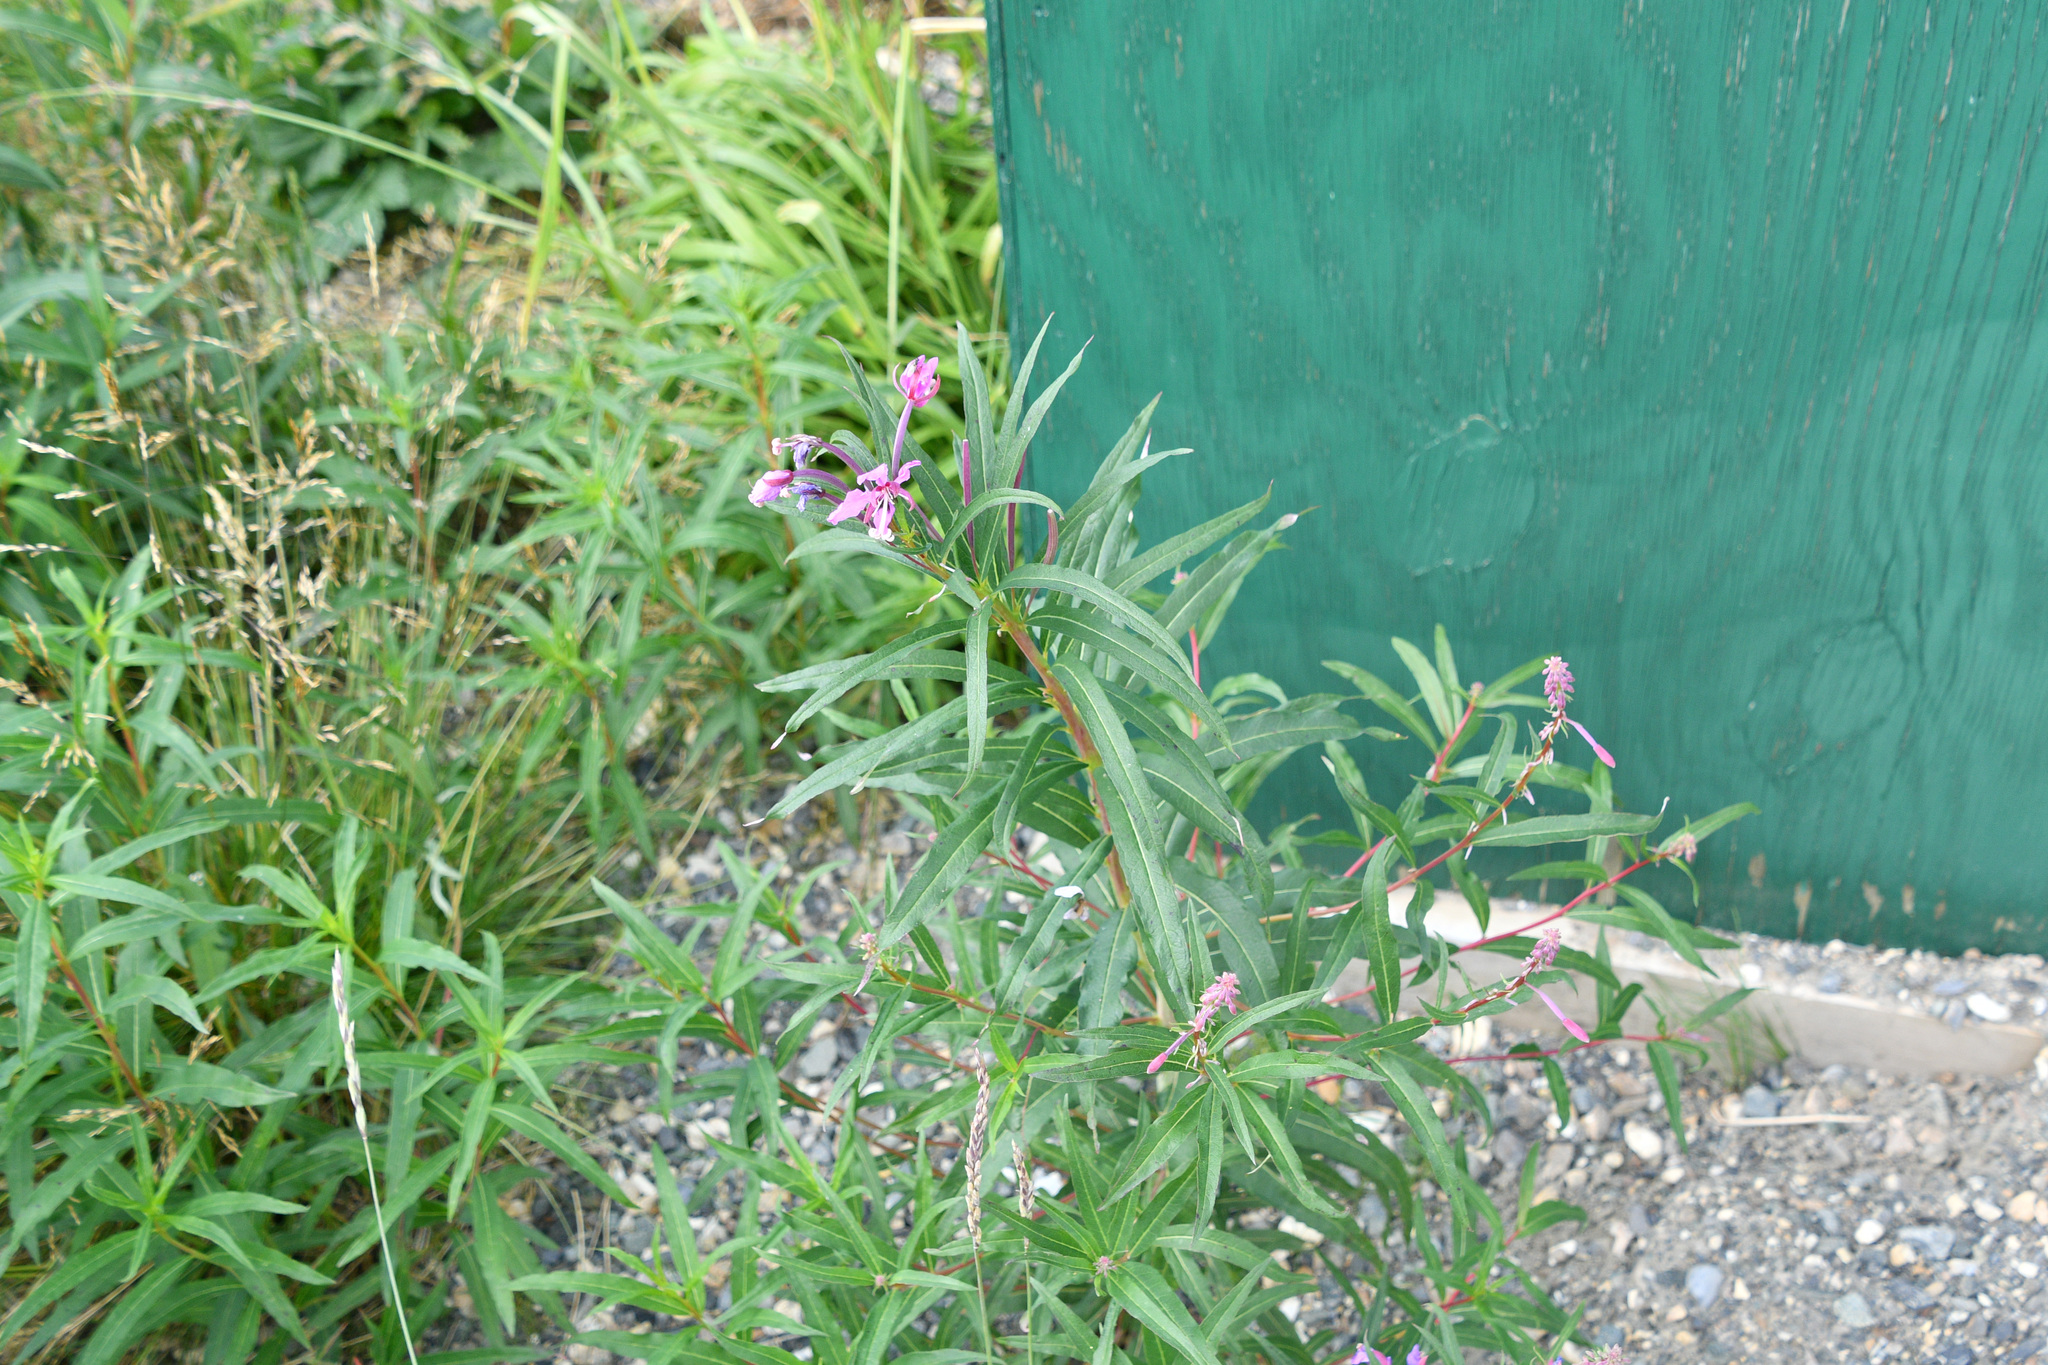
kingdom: Plantae
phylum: Tracheophyta
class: Magnoliopsida
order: Myrtales
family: Onagraceae
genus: Chamaenerion
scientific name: Chamaenerion angustifolium
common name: Fireweed
